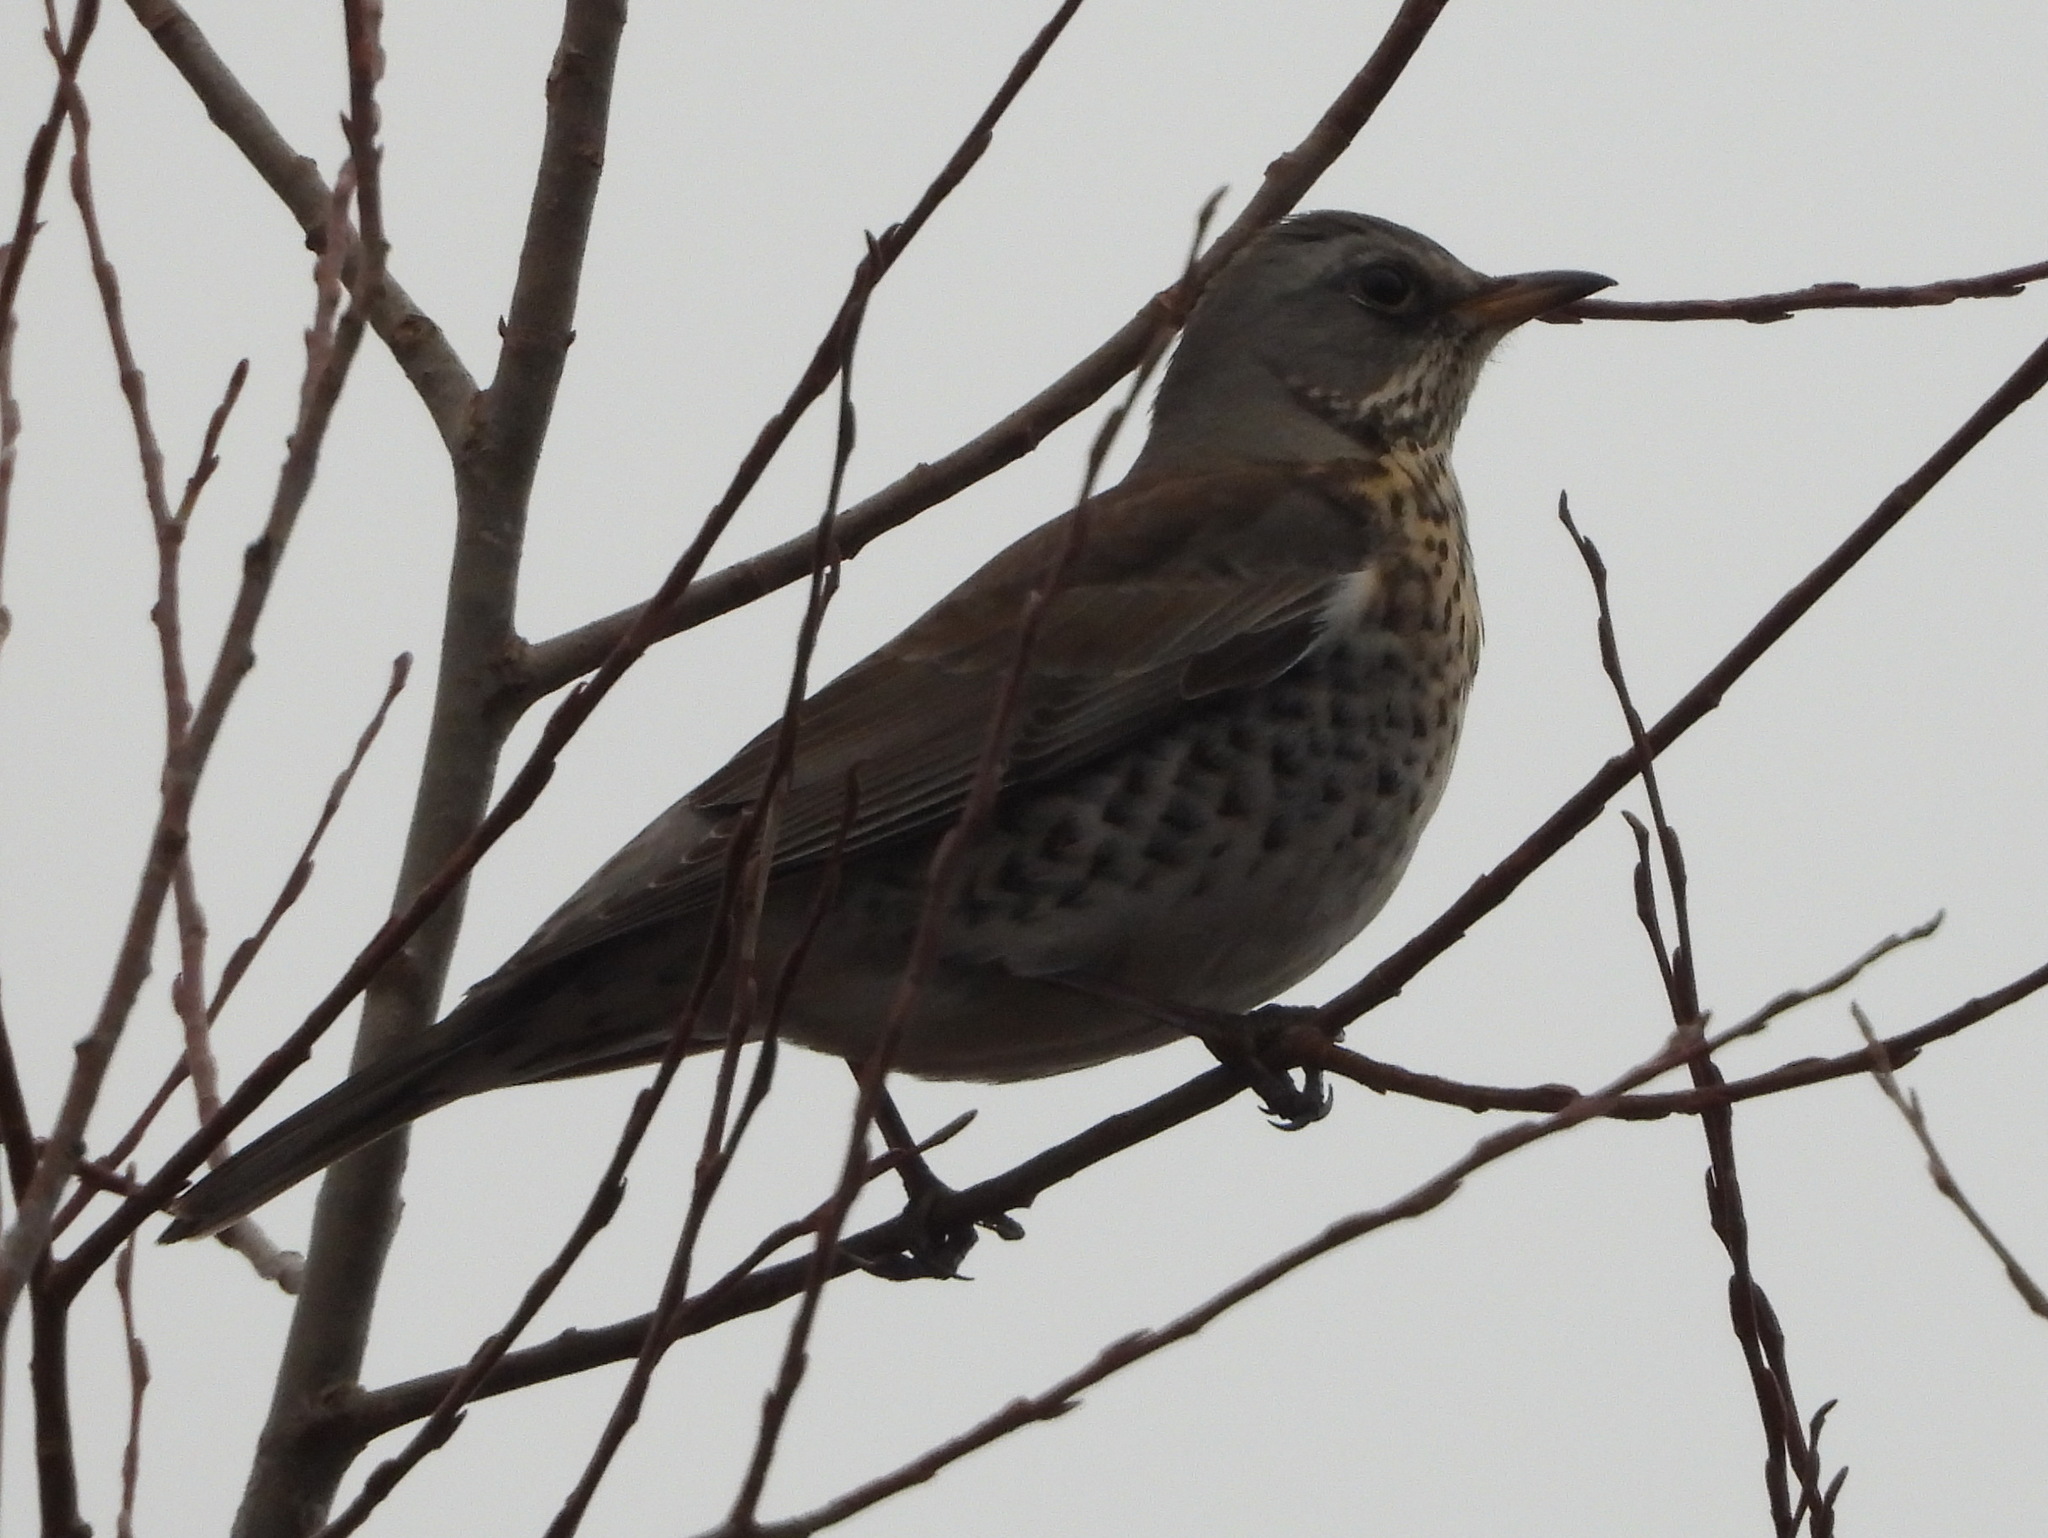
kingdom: Animalia
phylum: Chordata
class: Aves
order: Passeriformes
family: Turdidae
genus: Turdus
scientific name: Turdus pilaris
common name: Fieldfare
